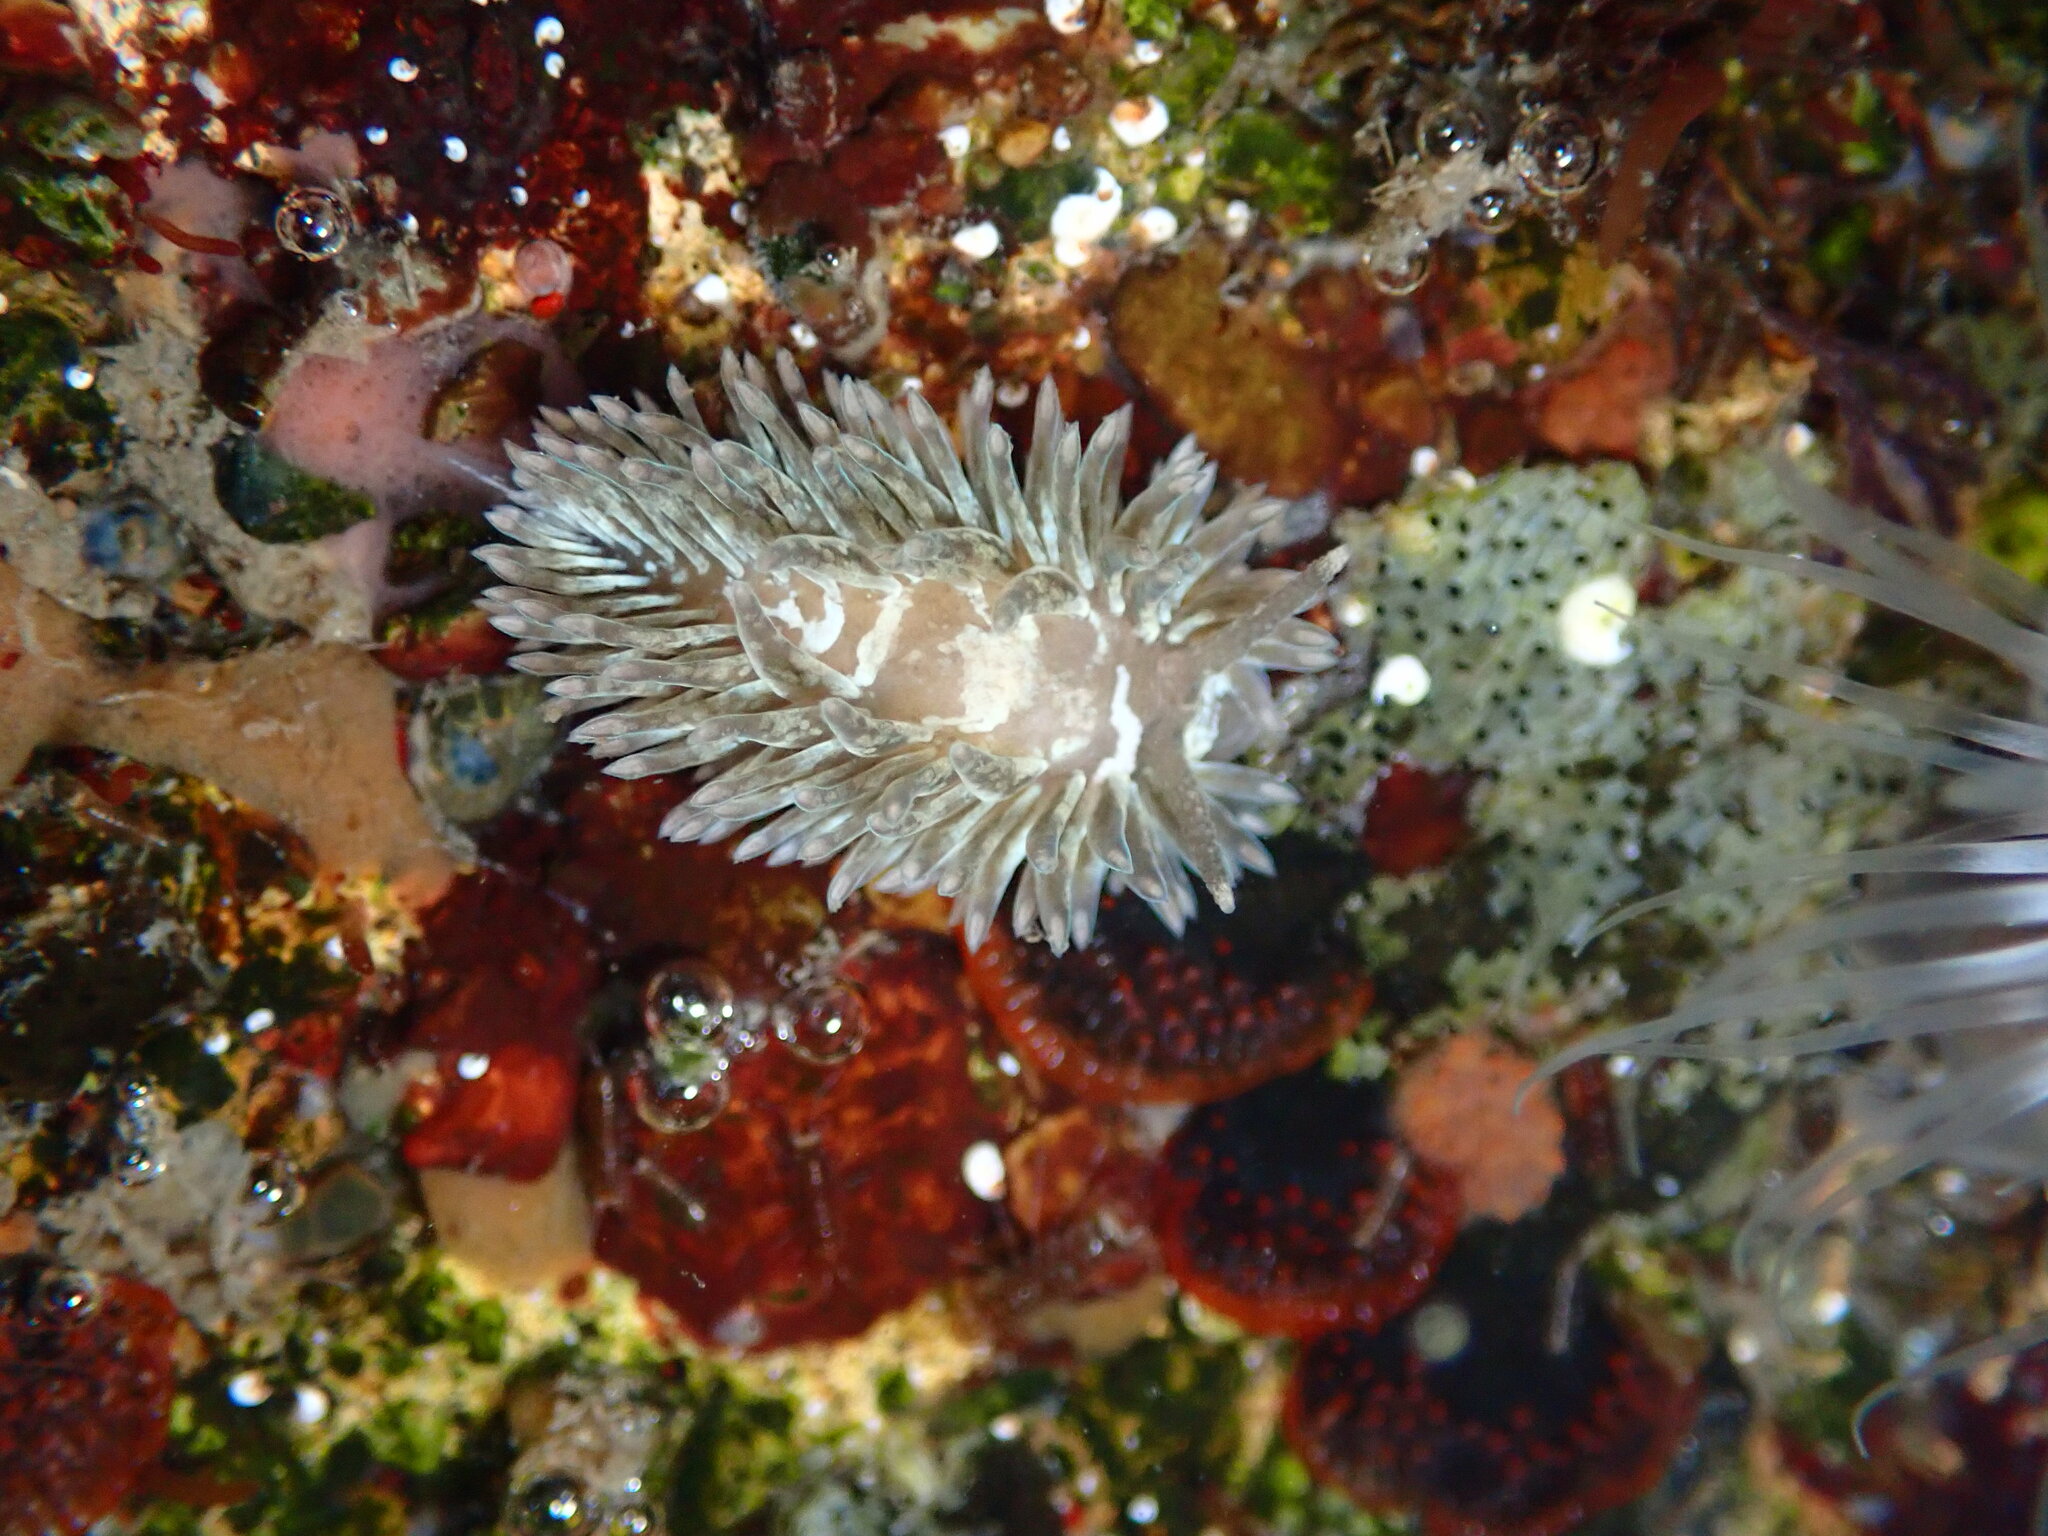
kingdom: Animalia
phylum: Mollusca
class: Gastropoda
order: Nudibranchia
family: Aeolidiidae
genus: Aeolidia
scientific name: Aeolidia loui
